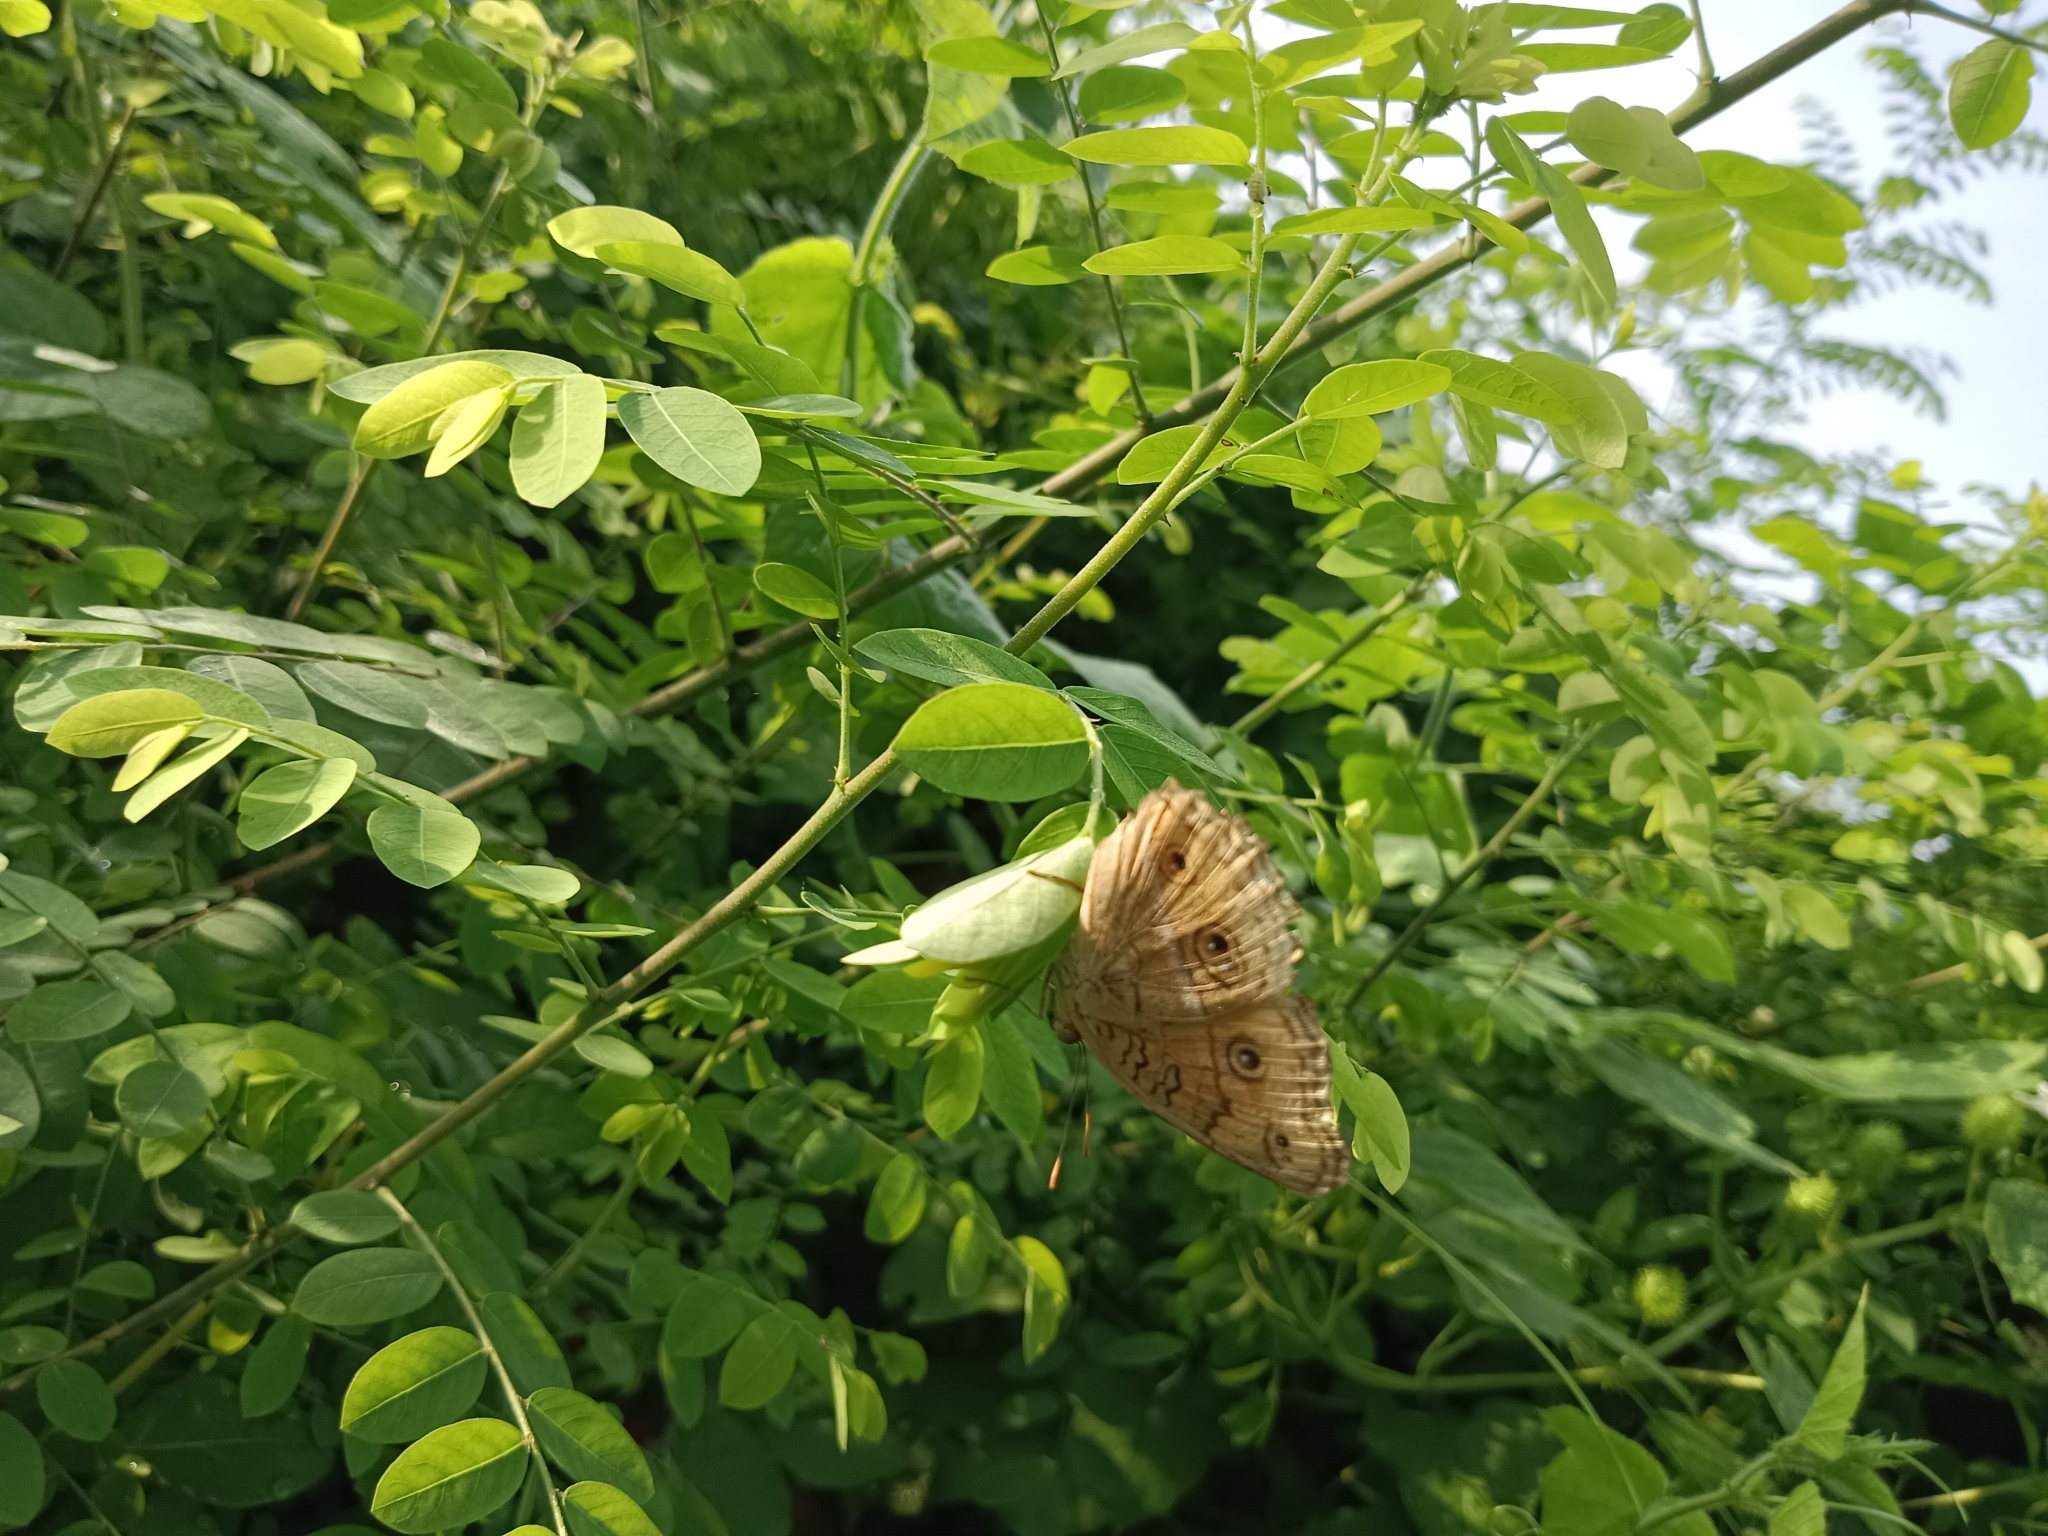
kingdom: Animalia
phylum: Arthropoda
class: Insecta
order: Lepidoptera
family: Nymphalidae
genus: Junonia
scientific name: Junonia almana
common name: Peacock pansy
